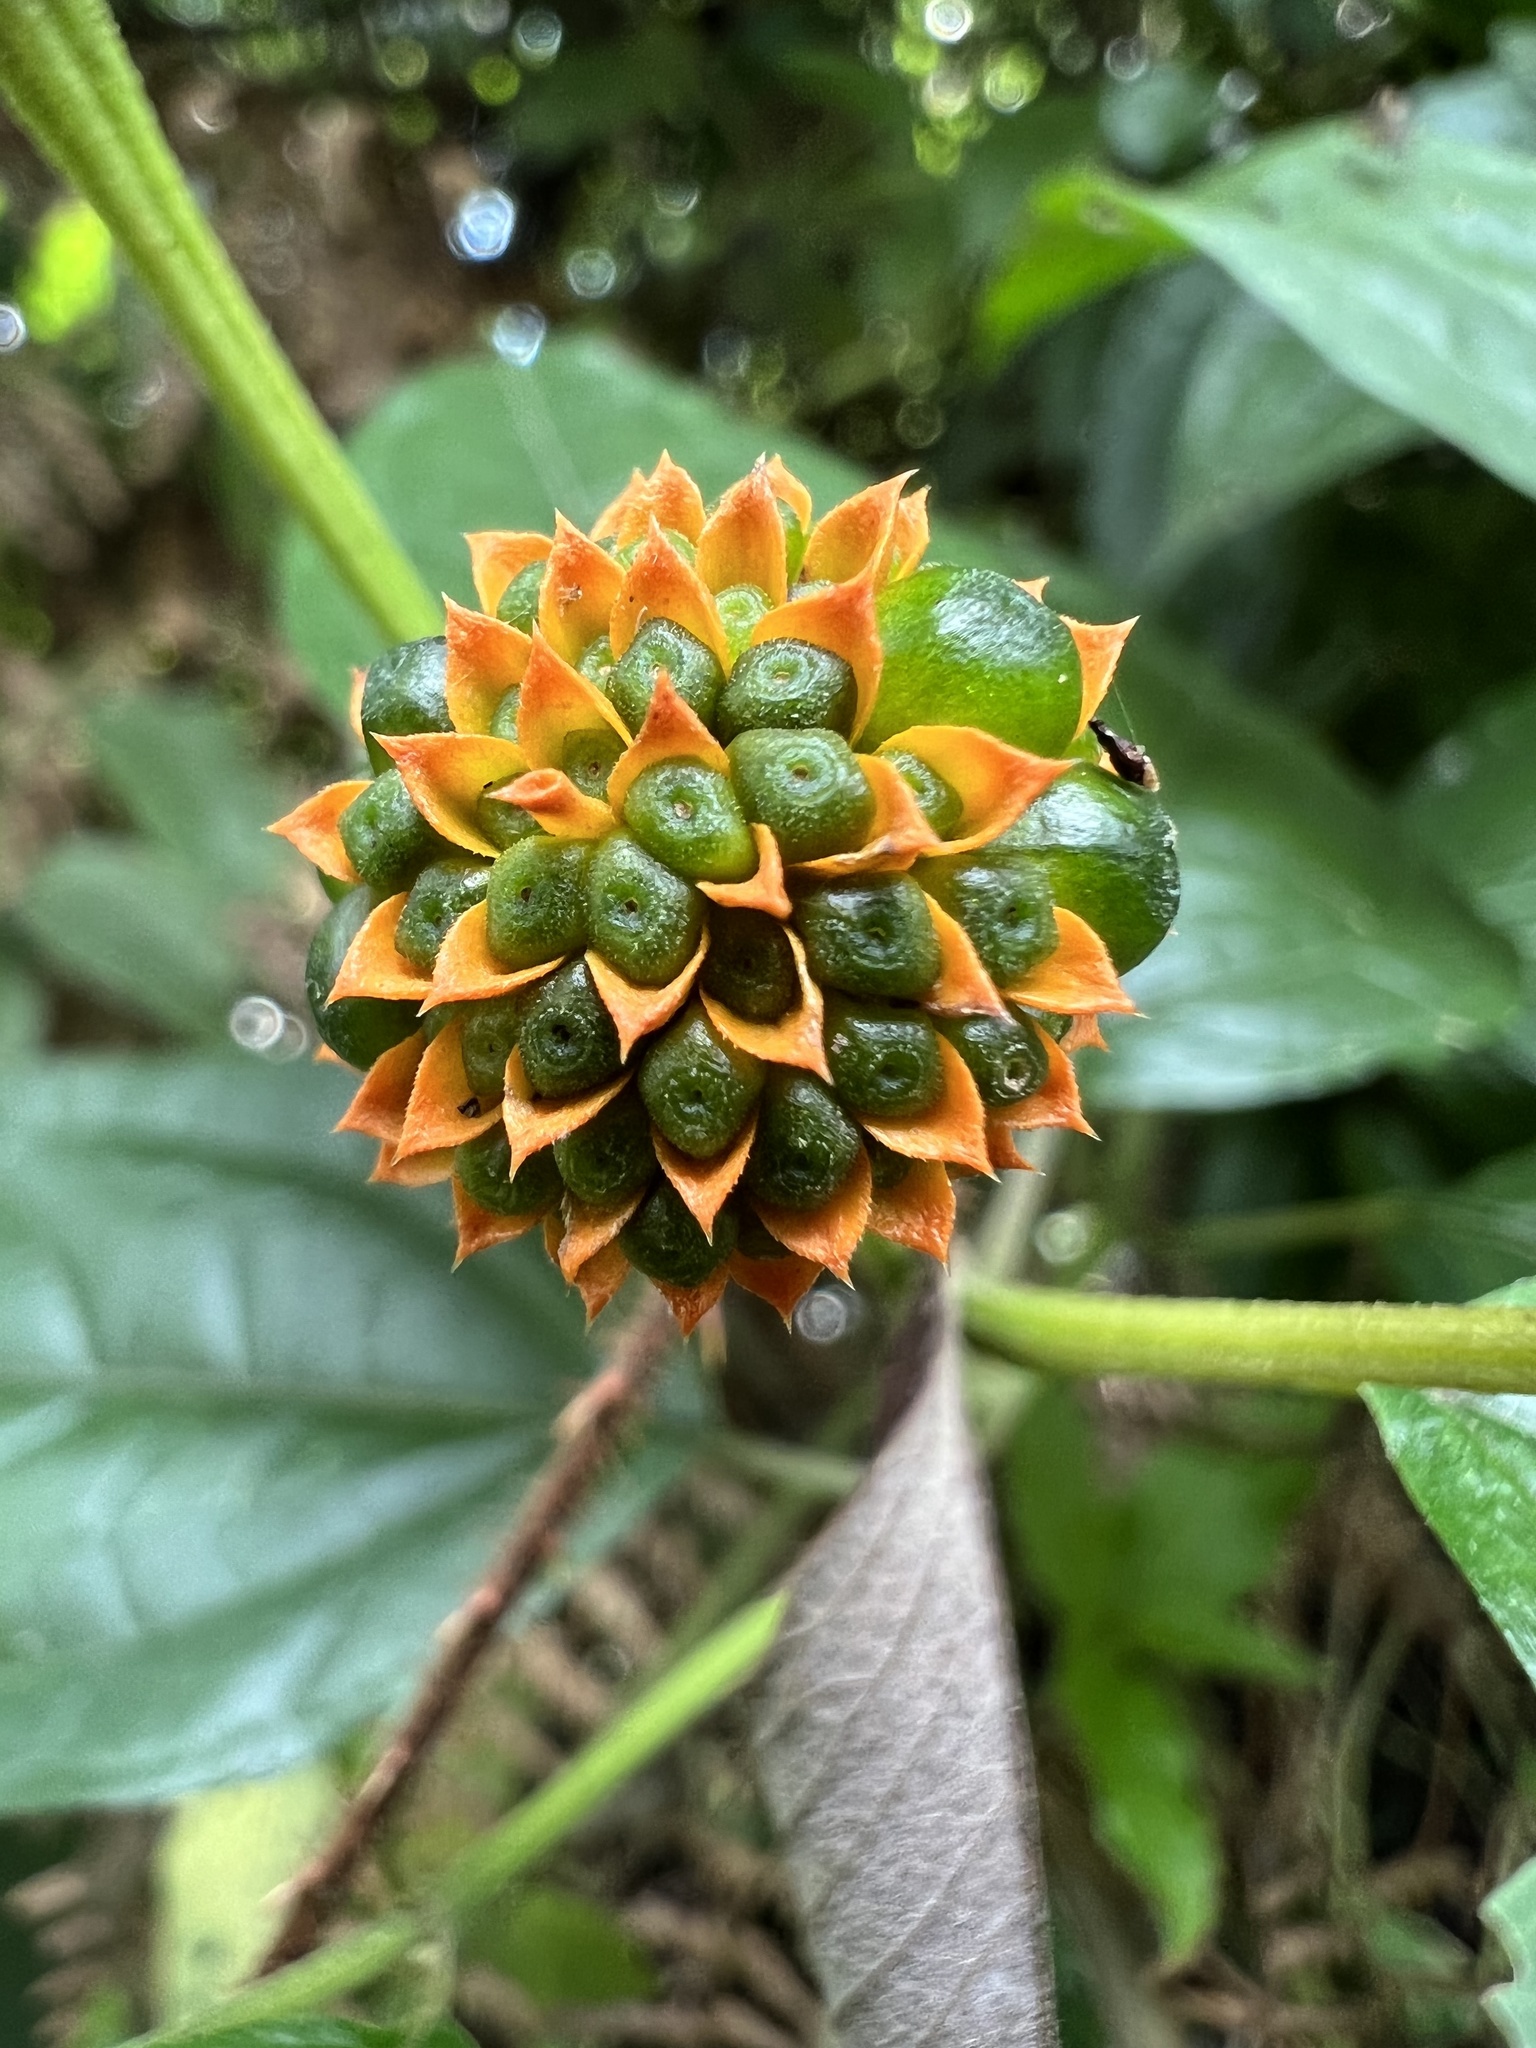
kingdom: Plantae
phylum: Tracheophyta
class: Magnoliopsida
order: Asterales
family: Asteraceae
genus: Tilesia
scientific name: Tilesia baccata
